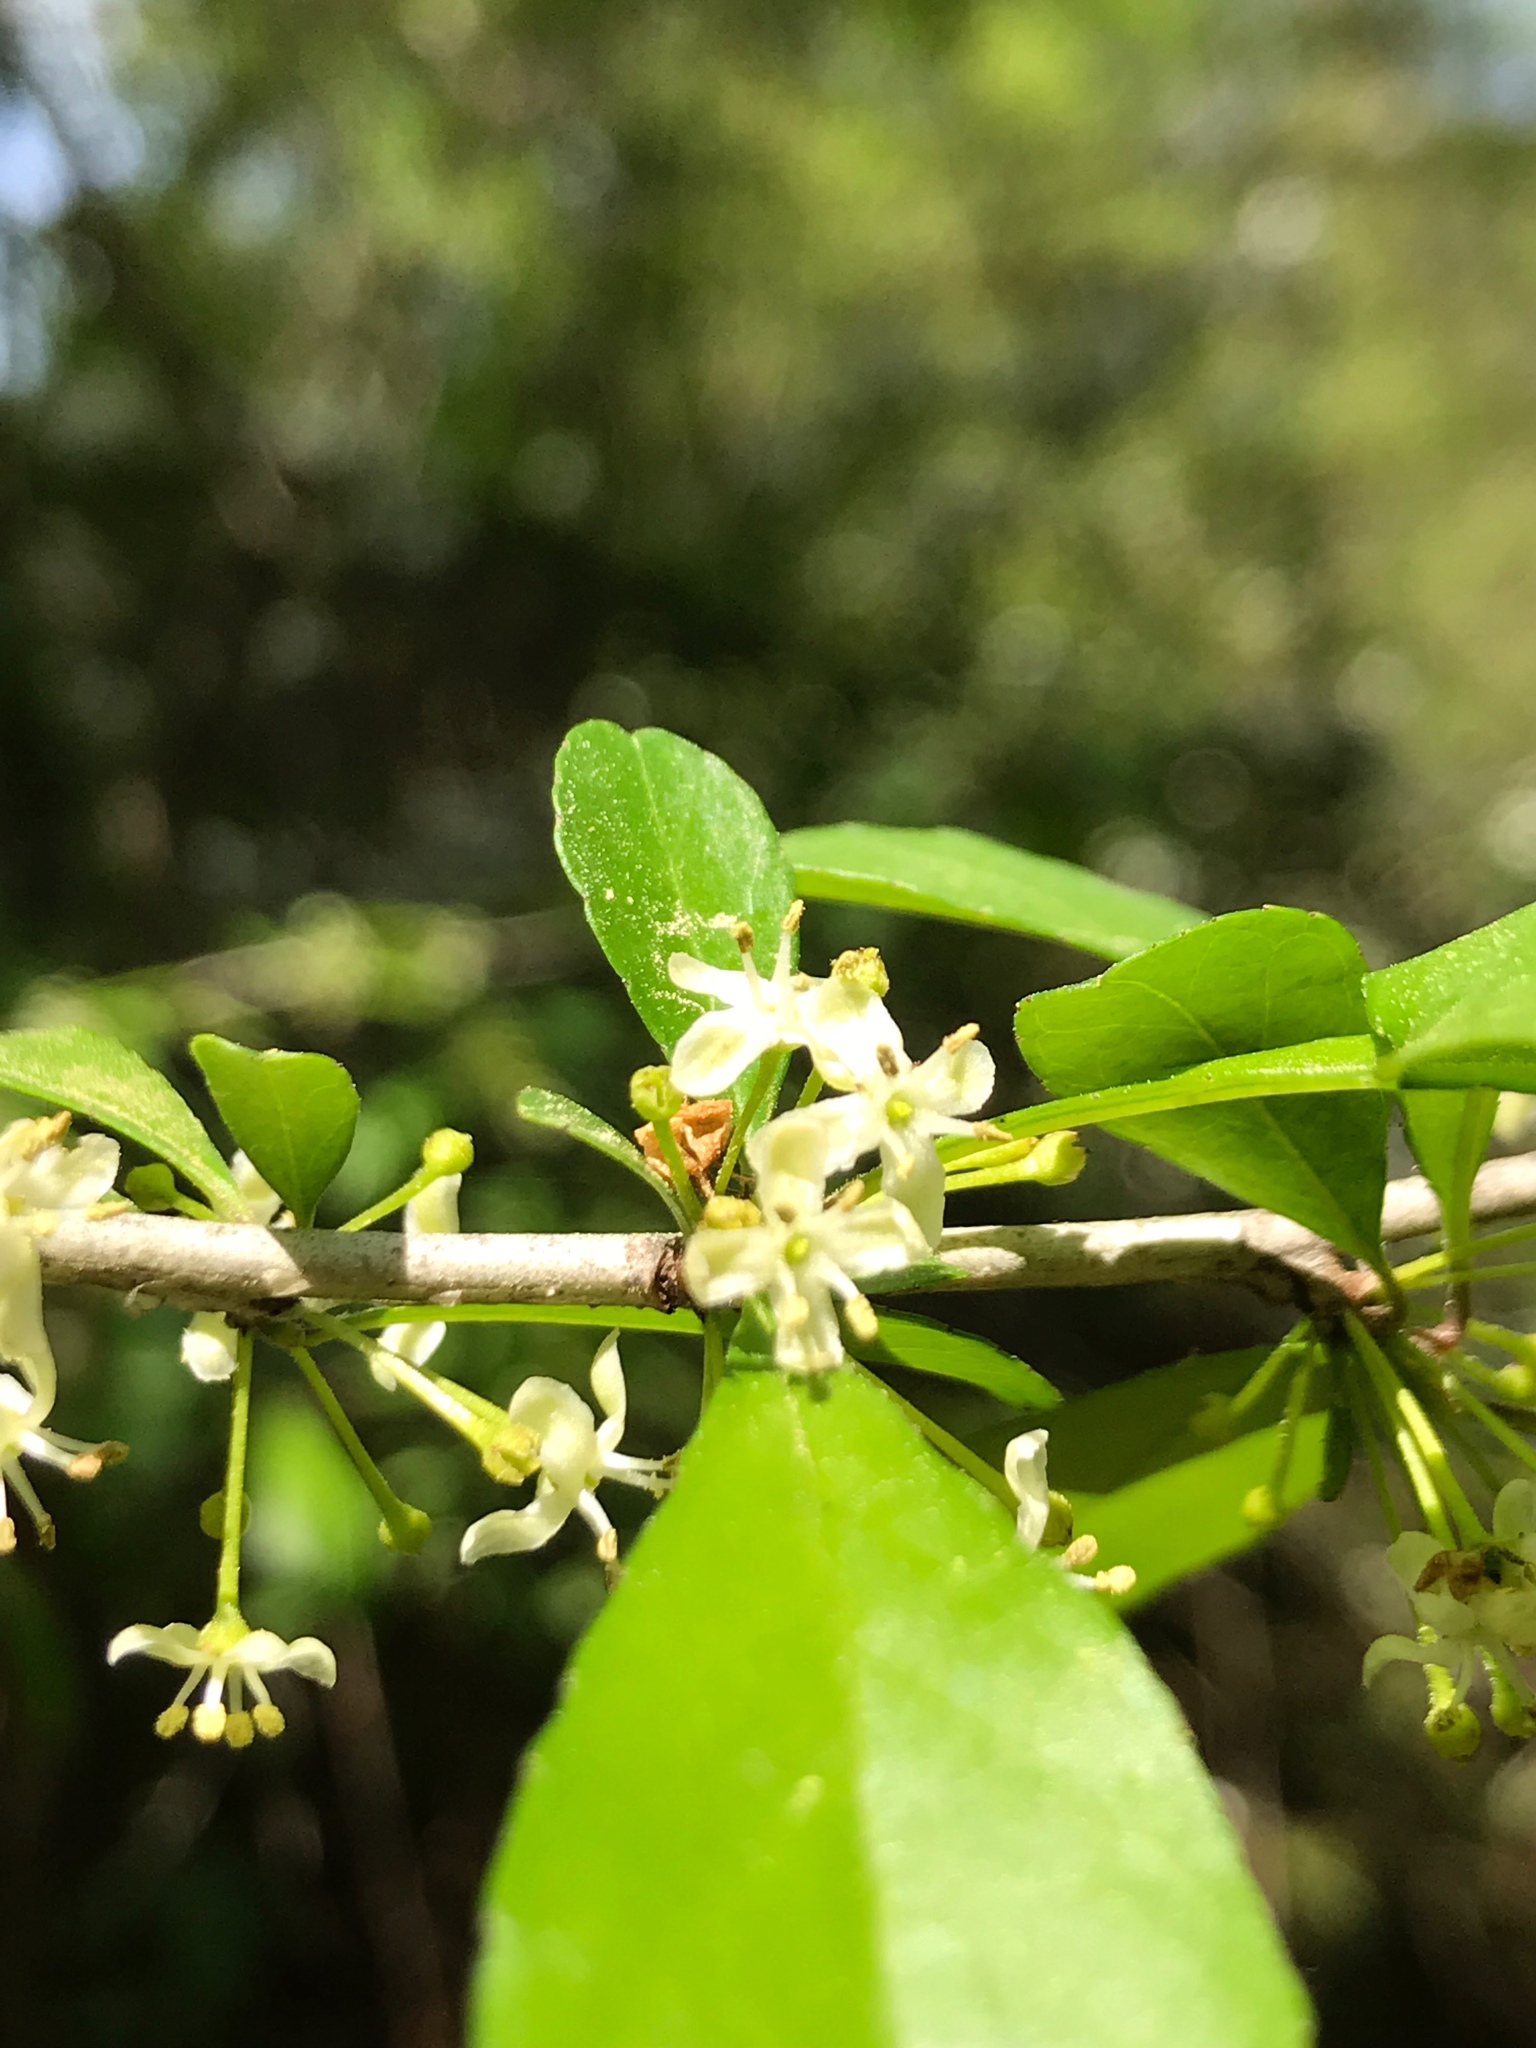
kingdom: Plantae
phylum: Tracheophyta
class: Magnoliopsida
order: Aquifoliales
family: Aquifoliaceae
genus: Ilex
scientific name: Ilex decidua
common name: Possum-haw
